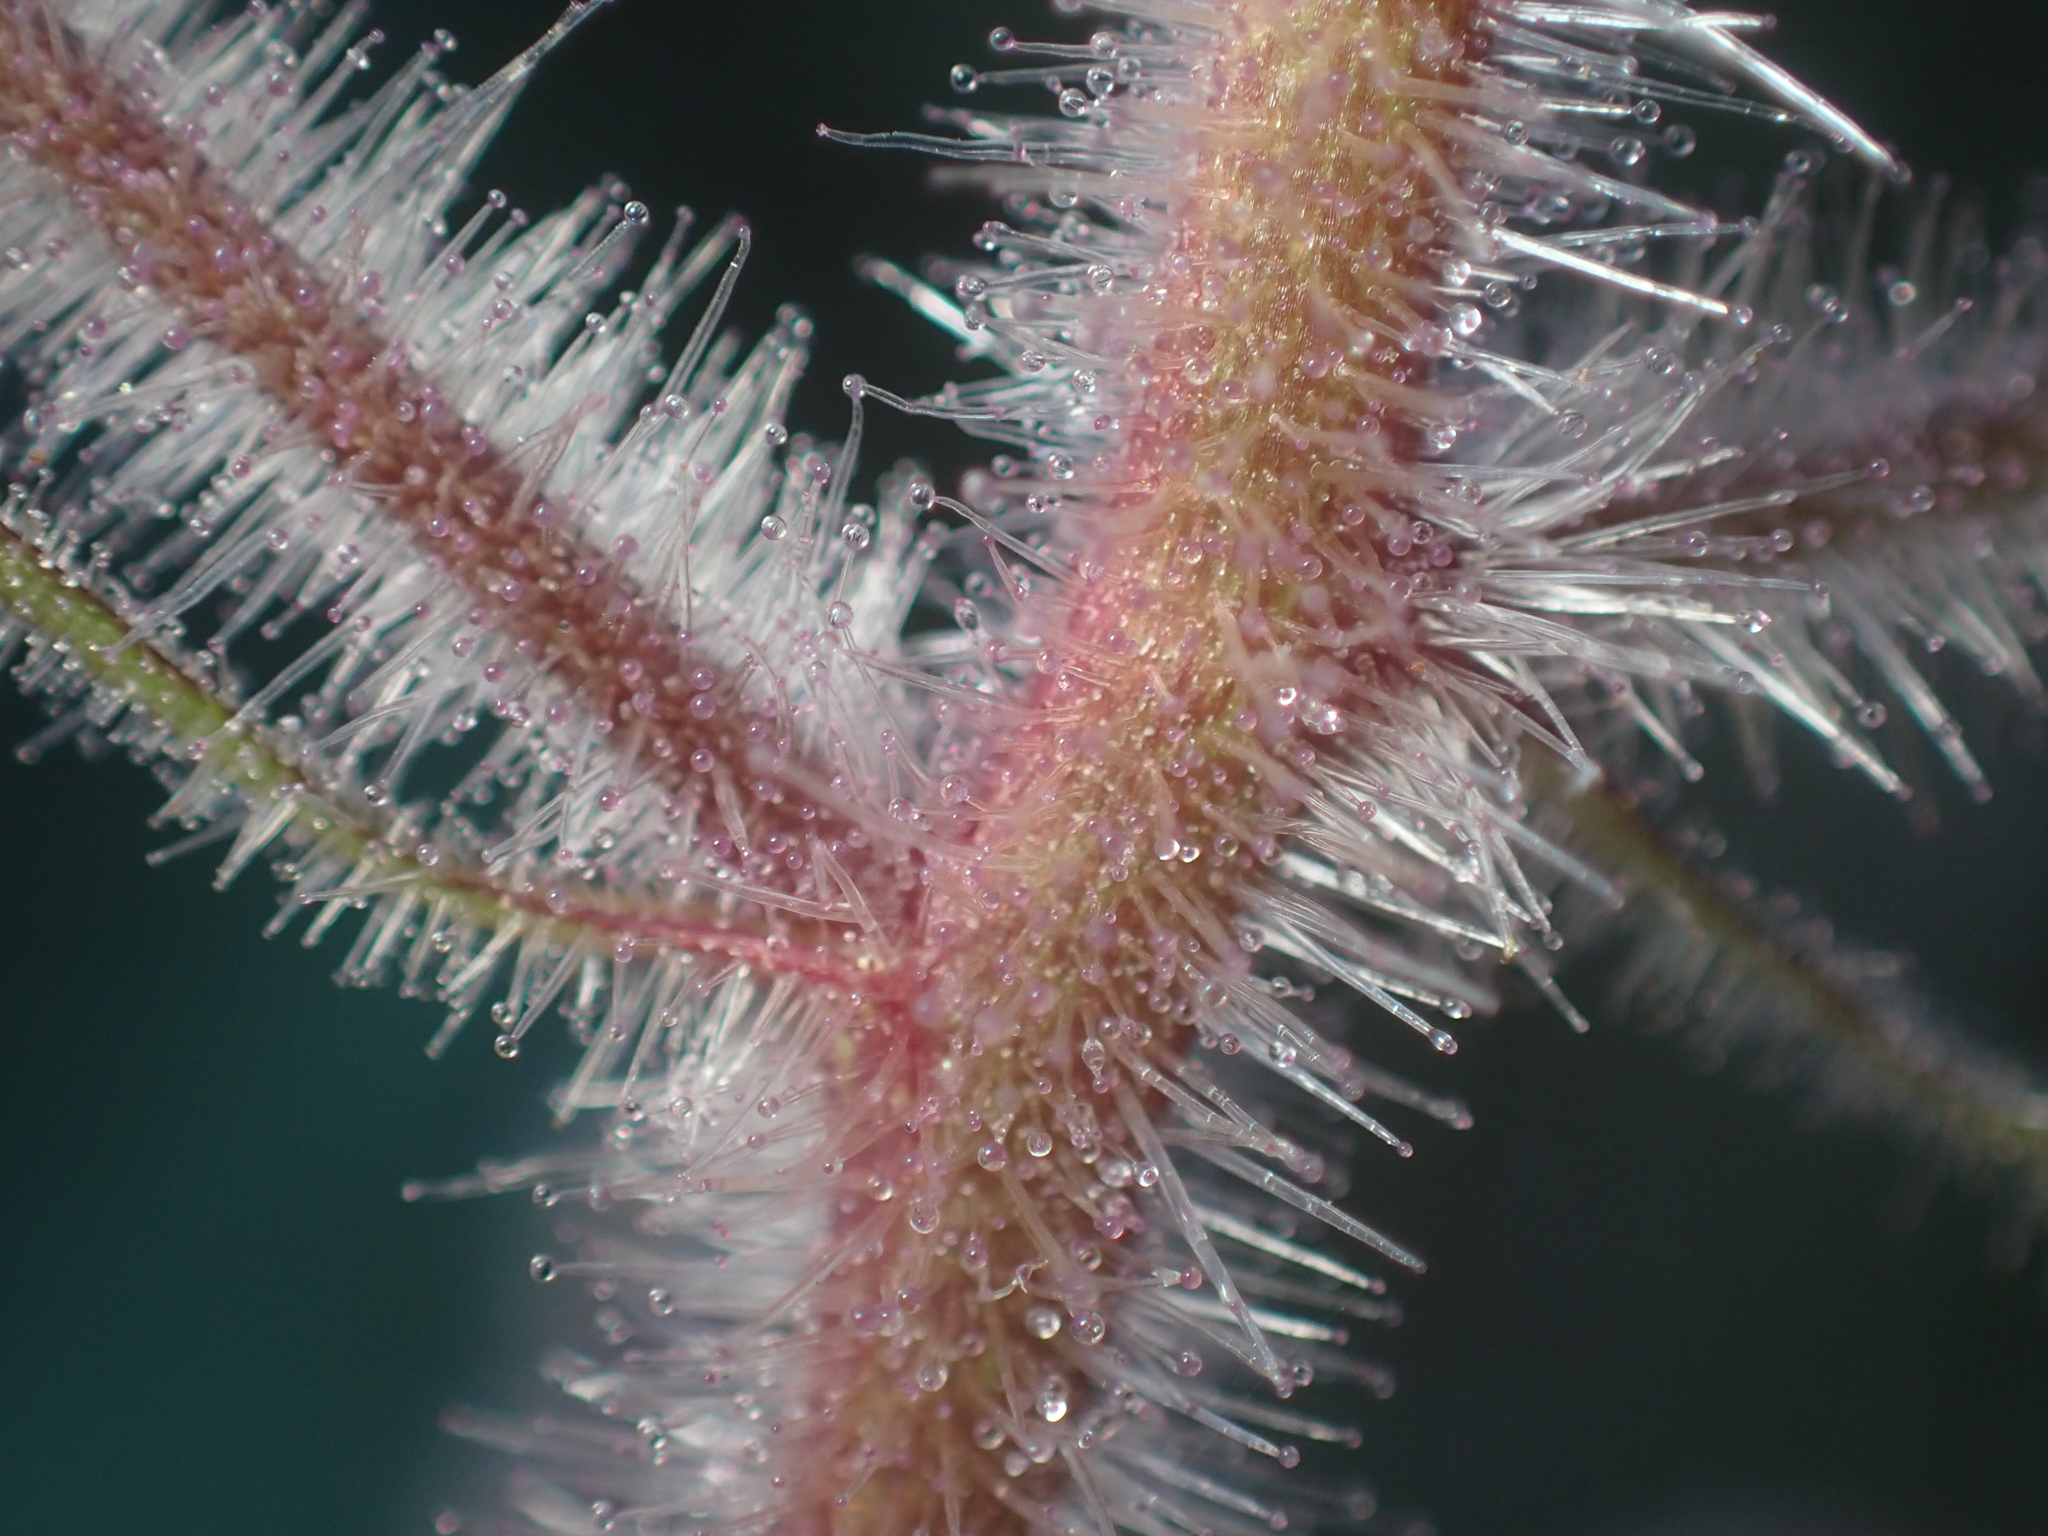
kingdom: Plantae
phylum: Tracheophyta
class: Magnoliopsida
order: Lamiales
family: Scrophulariaceae
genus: Scrophularia
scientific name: Scrophularia villosa
